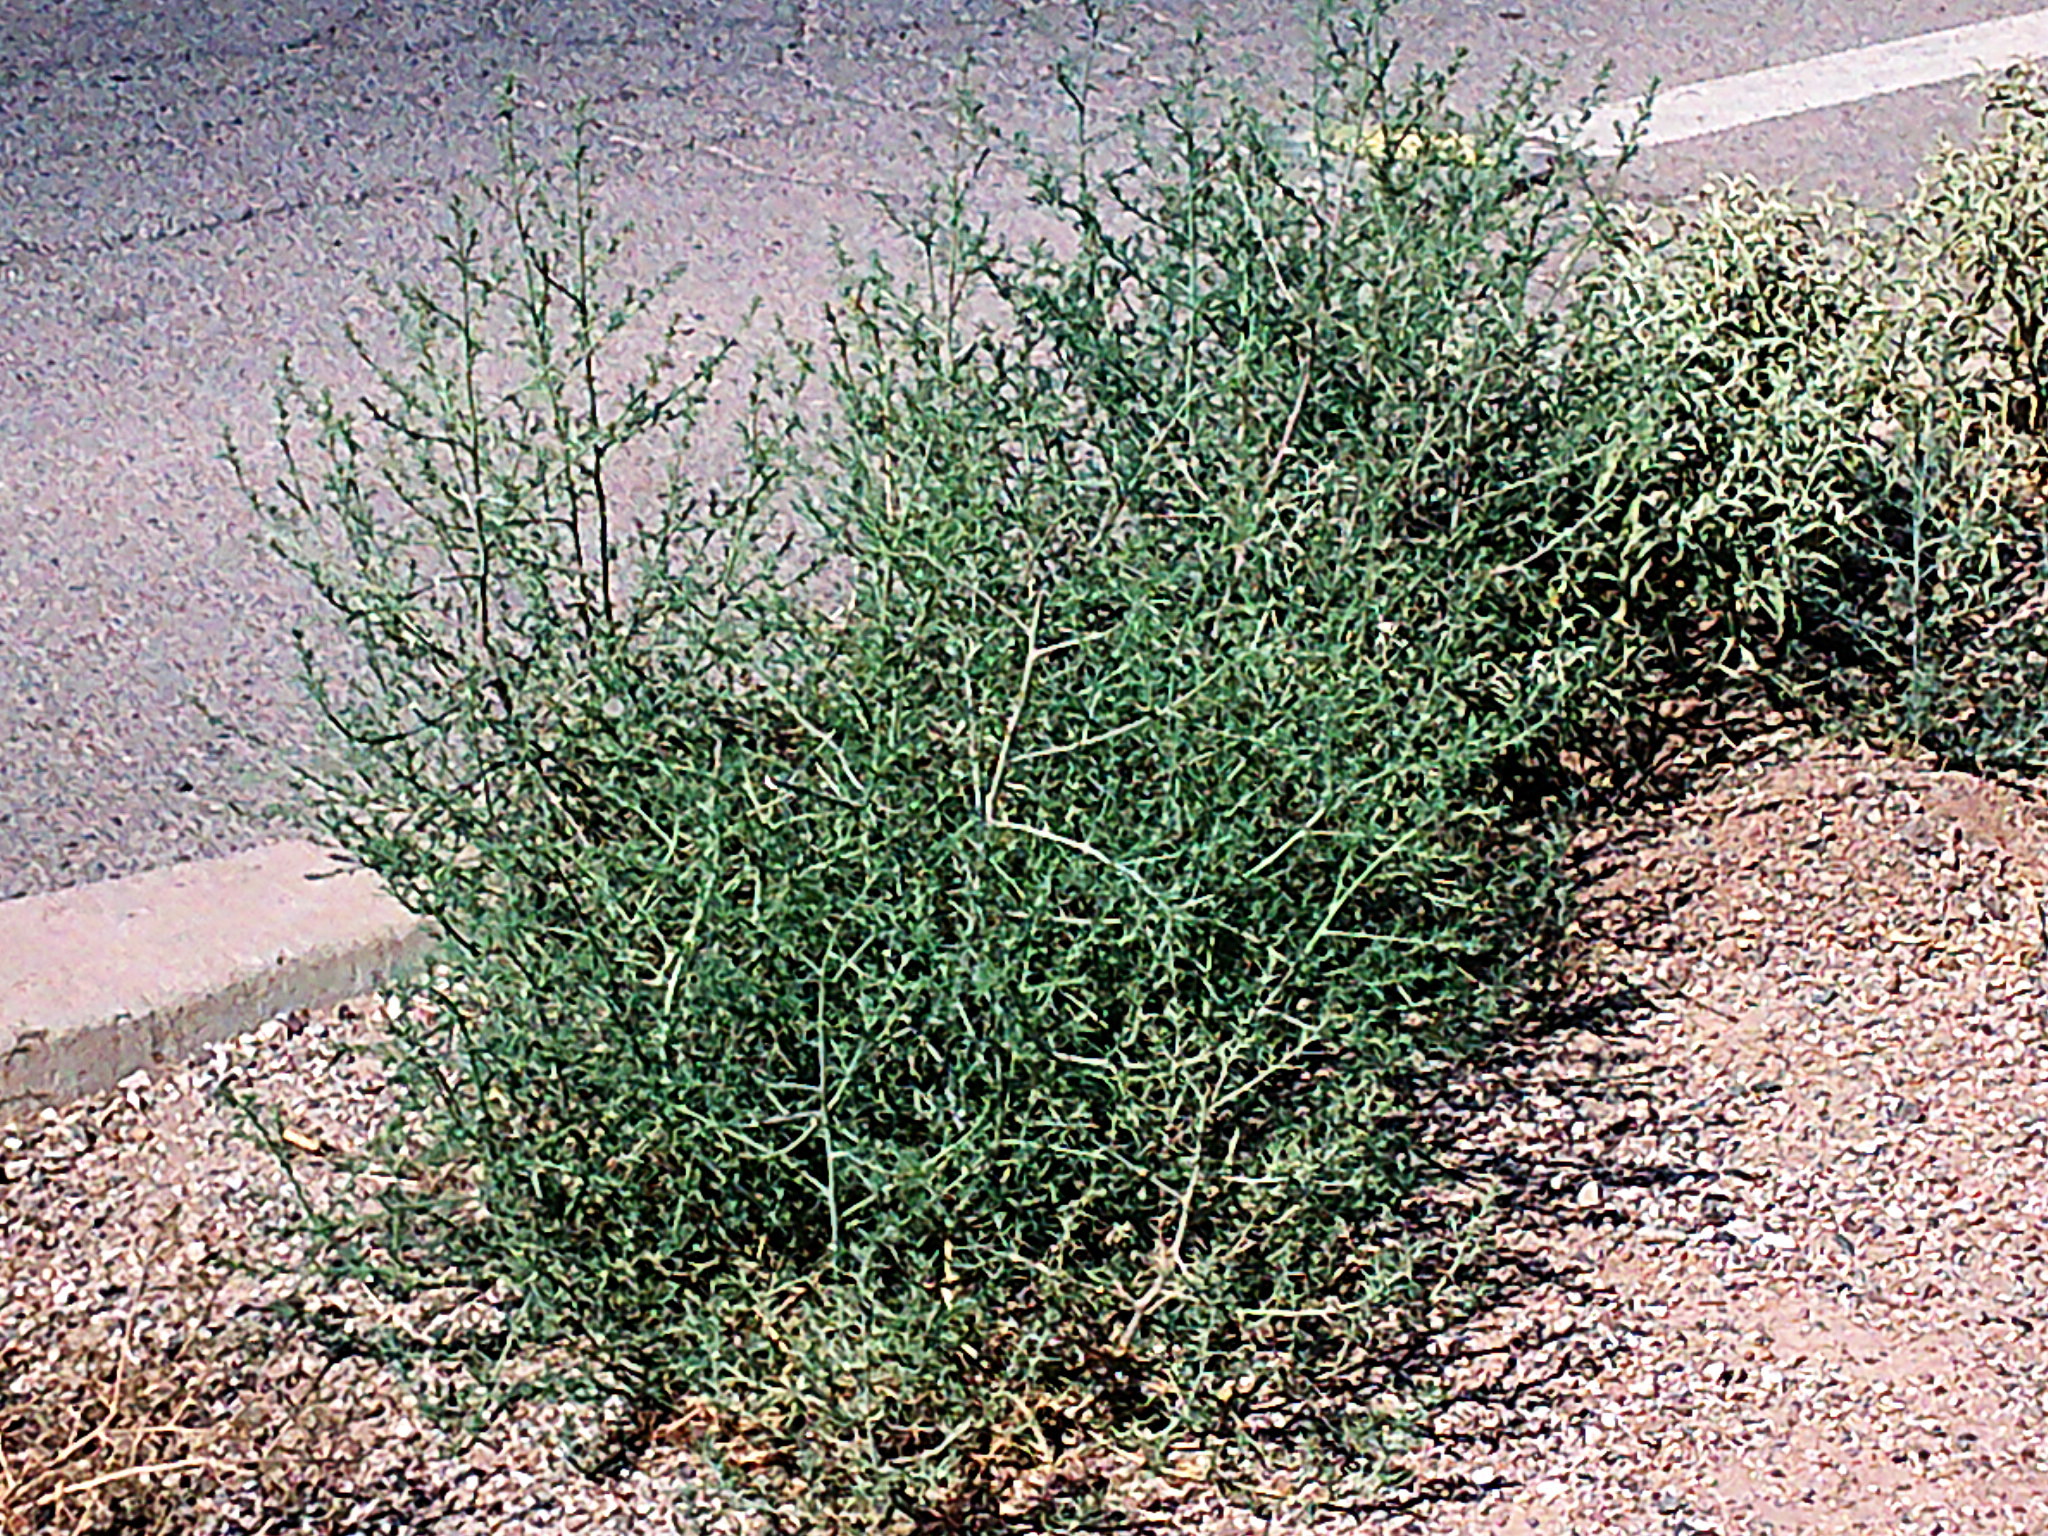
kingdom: Plantae
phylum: Tracheophyta
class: Magnoliopsida
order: Caryophyllales
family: Amaranthaceae
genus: Salsola
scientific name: Salsola tragus
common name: Prickly russian thistle
